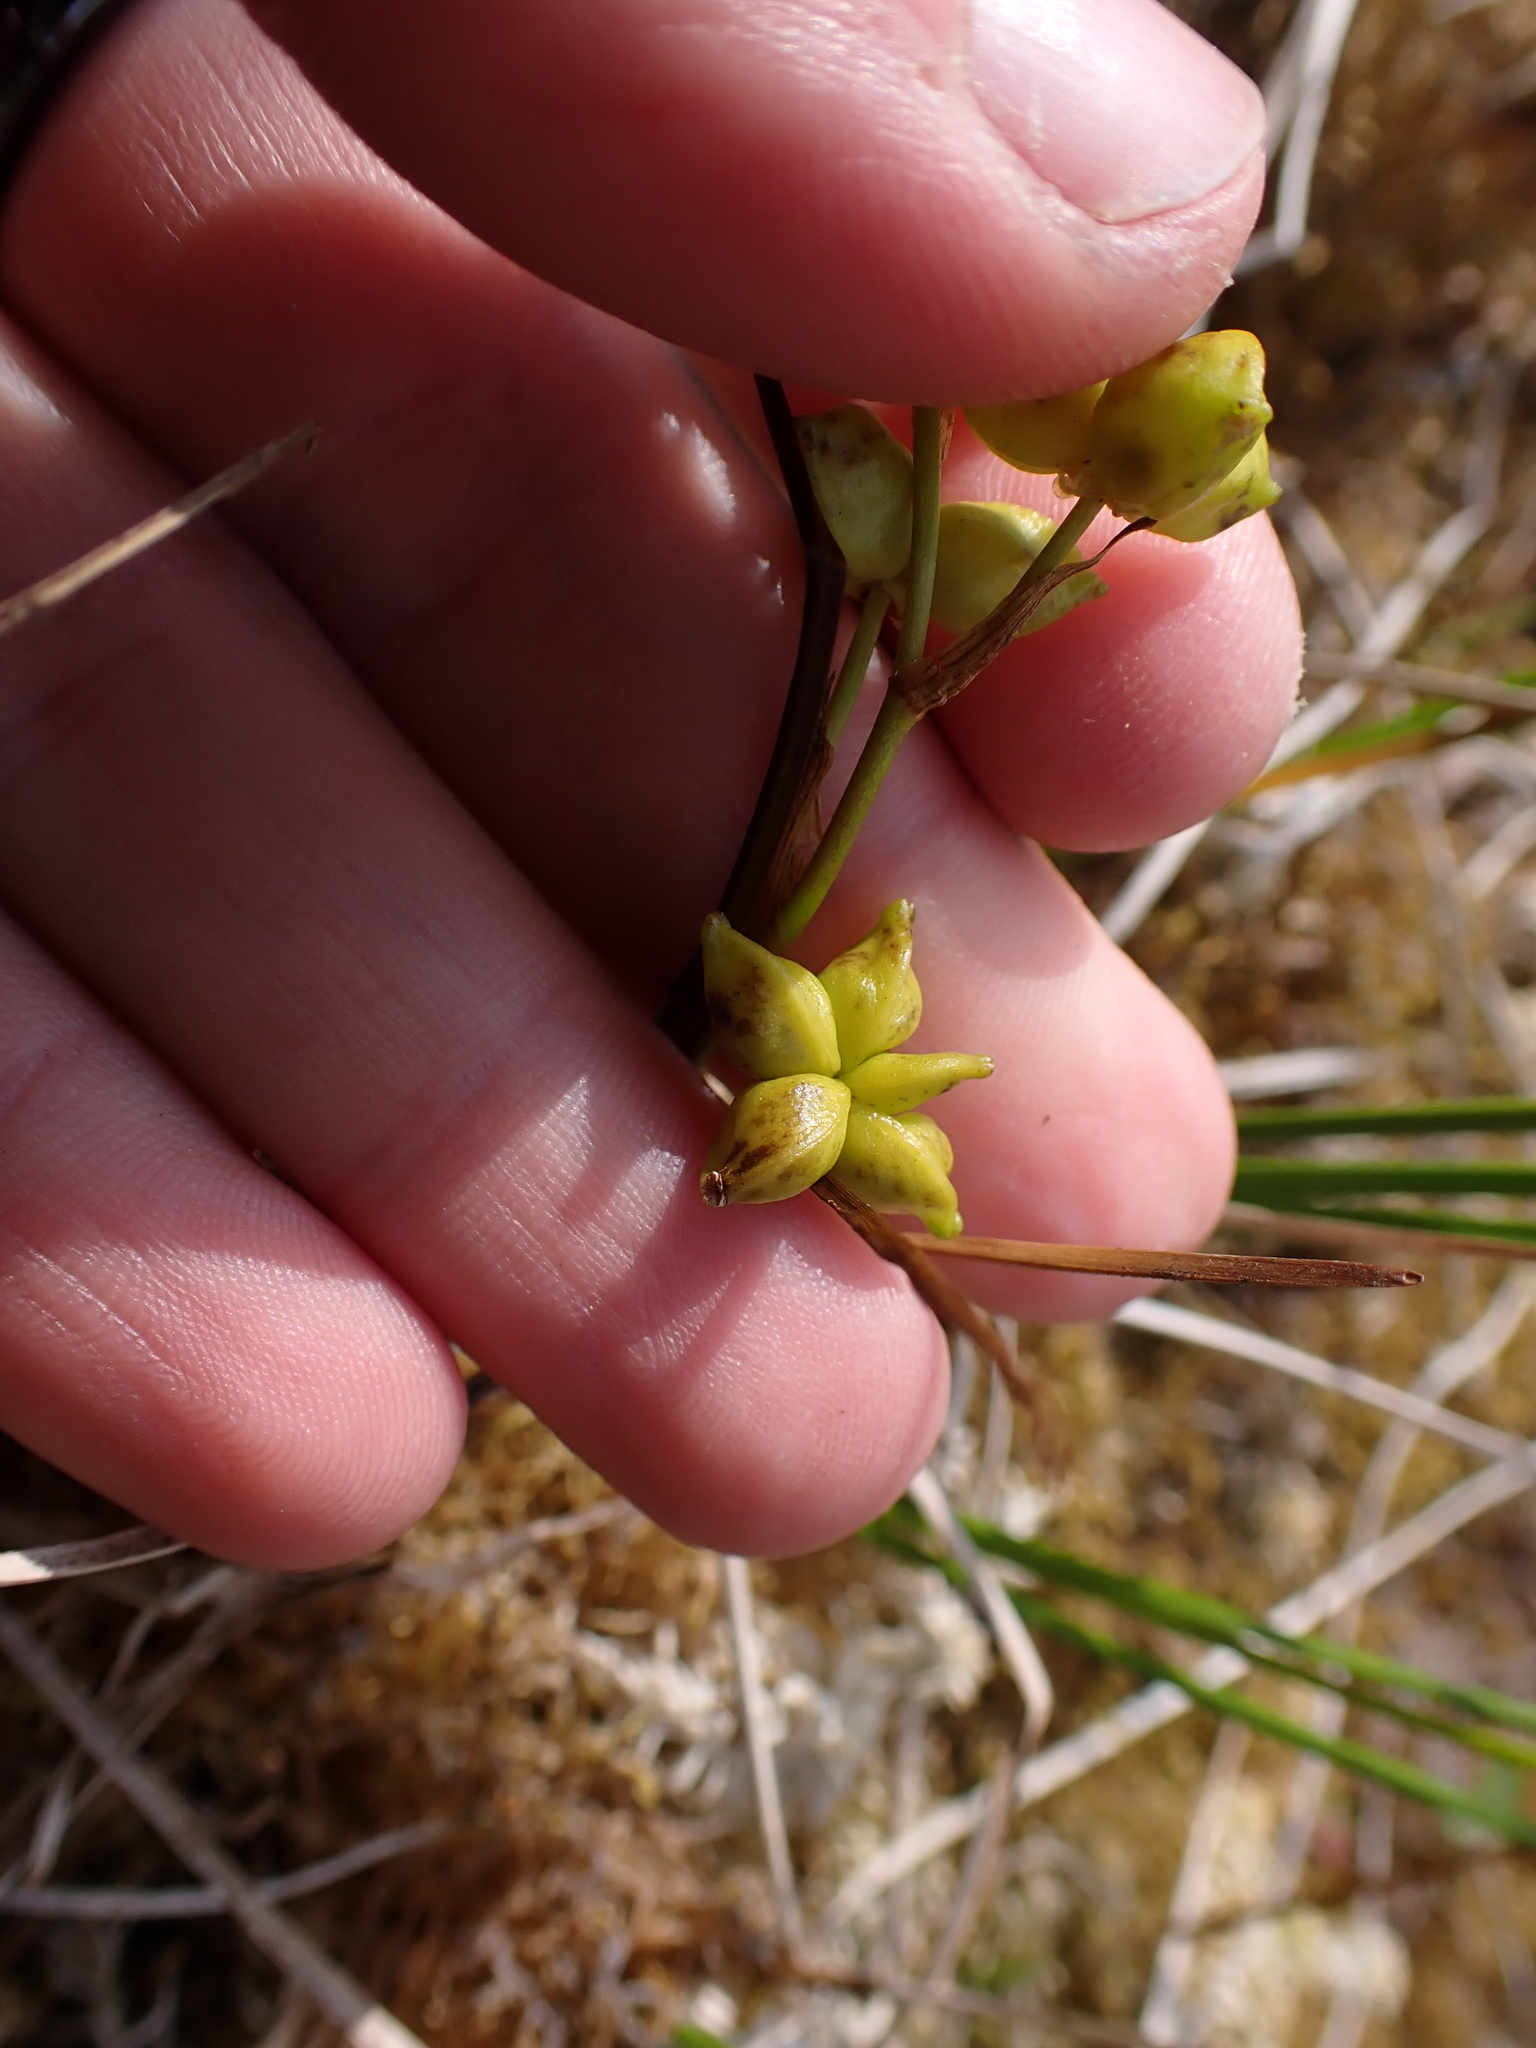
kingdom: Plantae
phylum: Tracheophyta
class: Liliopsida
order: Alismatales
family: Scheuchzeriaceae
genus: Scheuchzeria
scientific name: Scheuchzeria palustris
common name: Rannoch-rush
